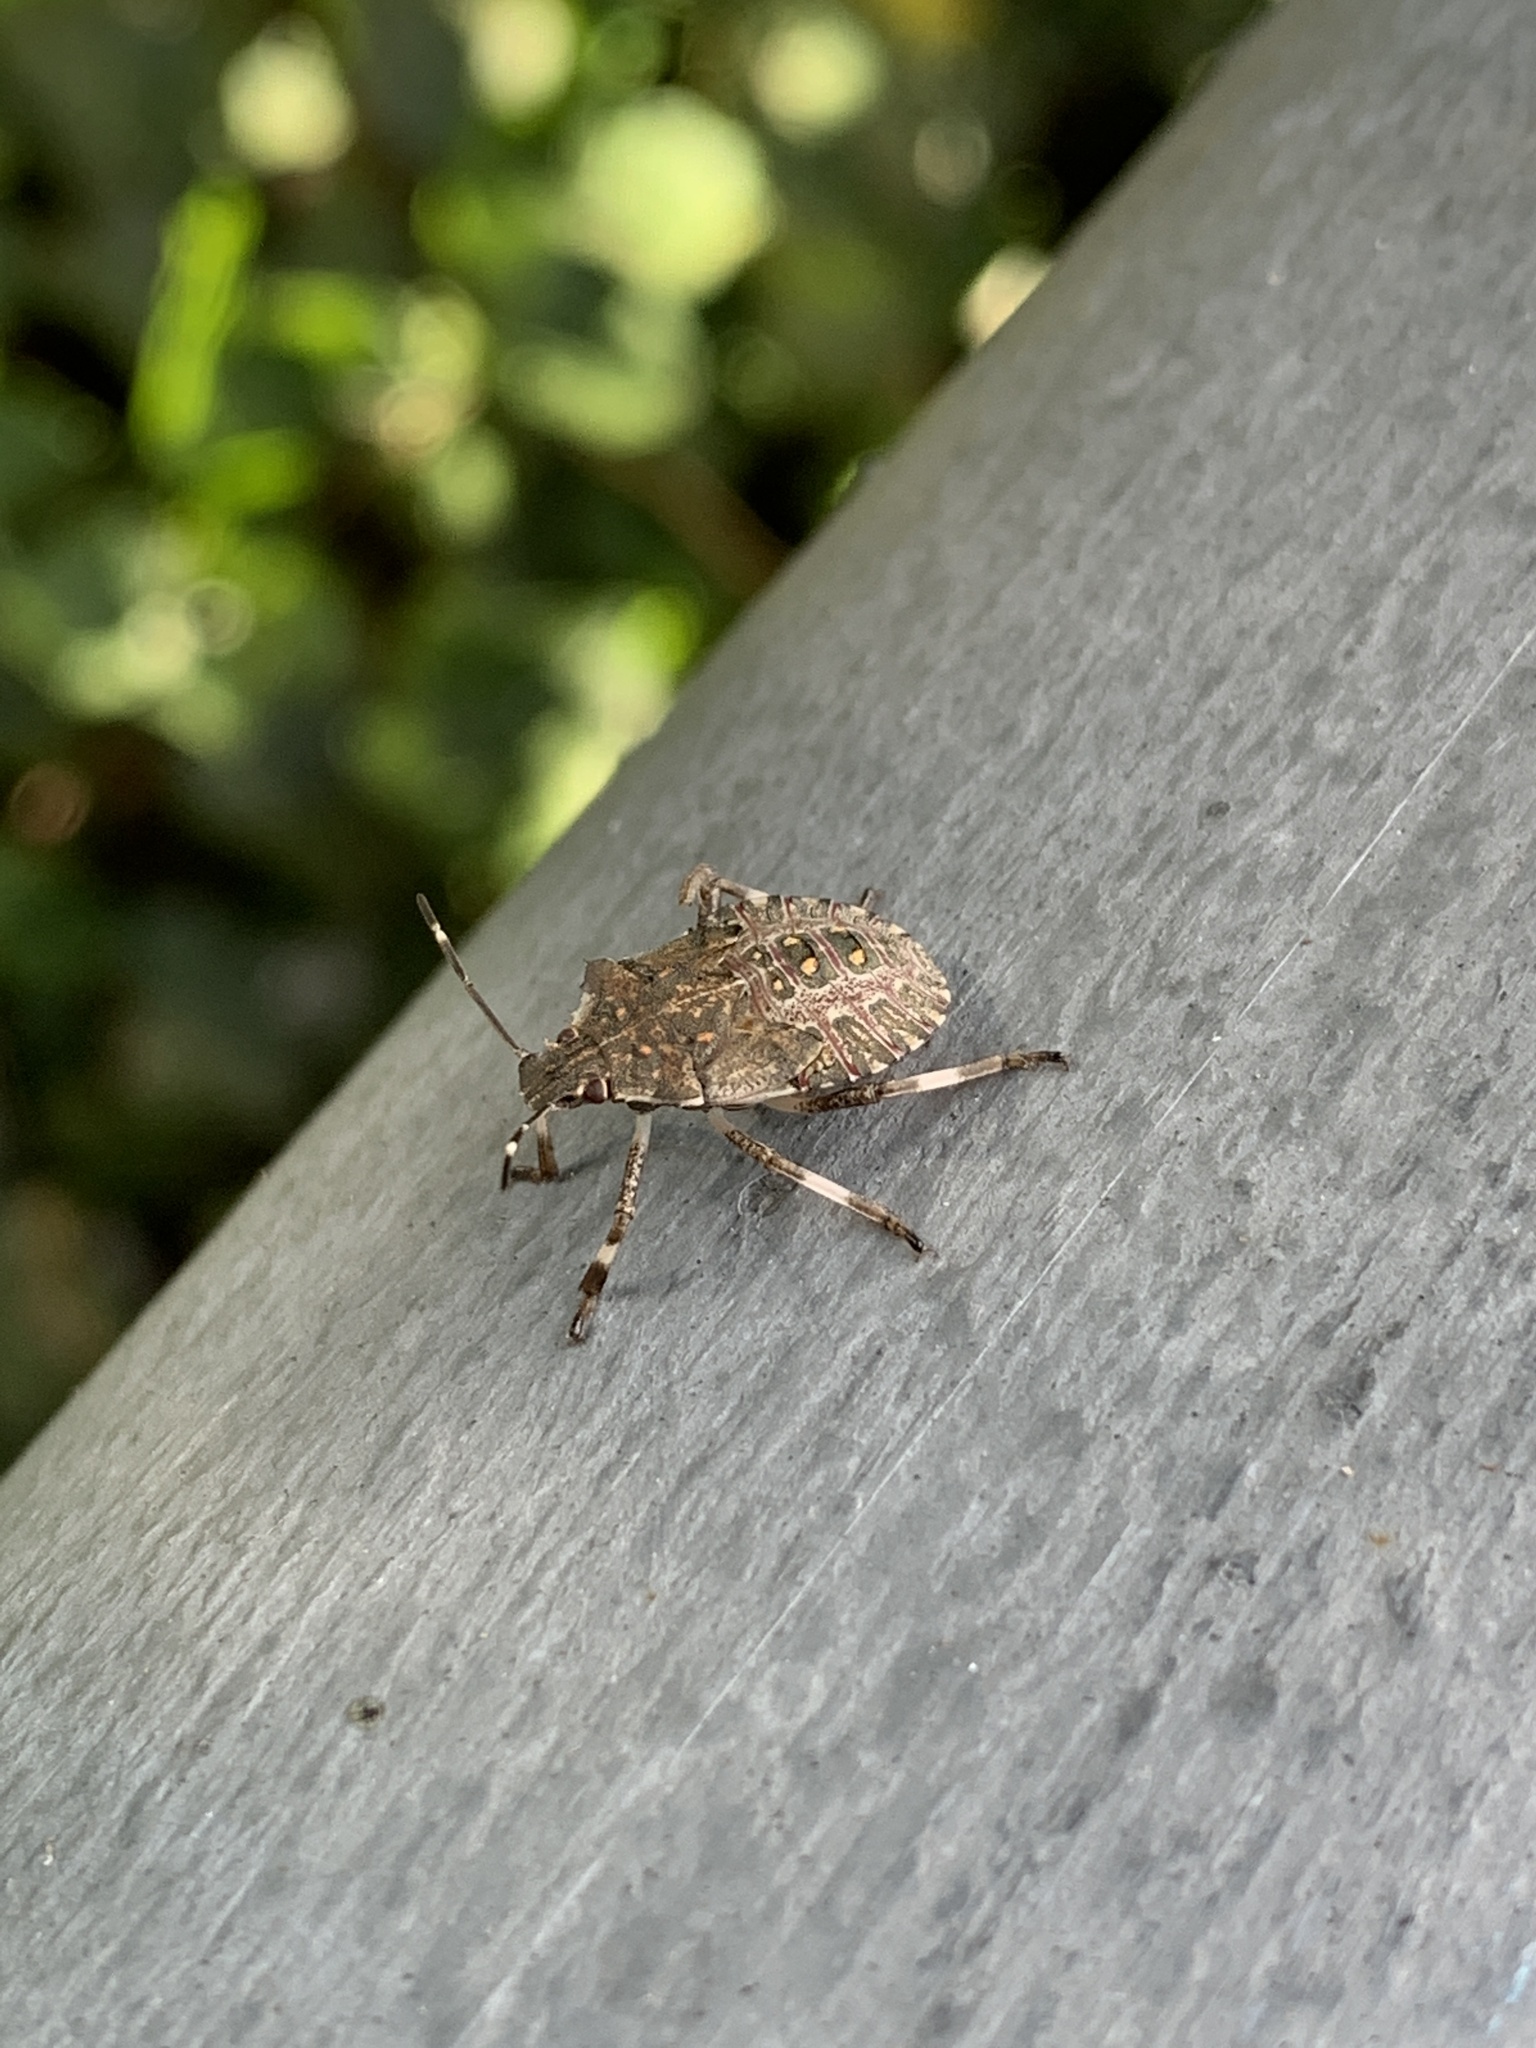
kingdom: Animalia
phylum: Arthropoda
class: Insecta
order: Hemiptera
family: Pentatomidae
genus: Halyomorpha
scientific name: Halyomorpha halys
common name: Brown marmorated stink bug
